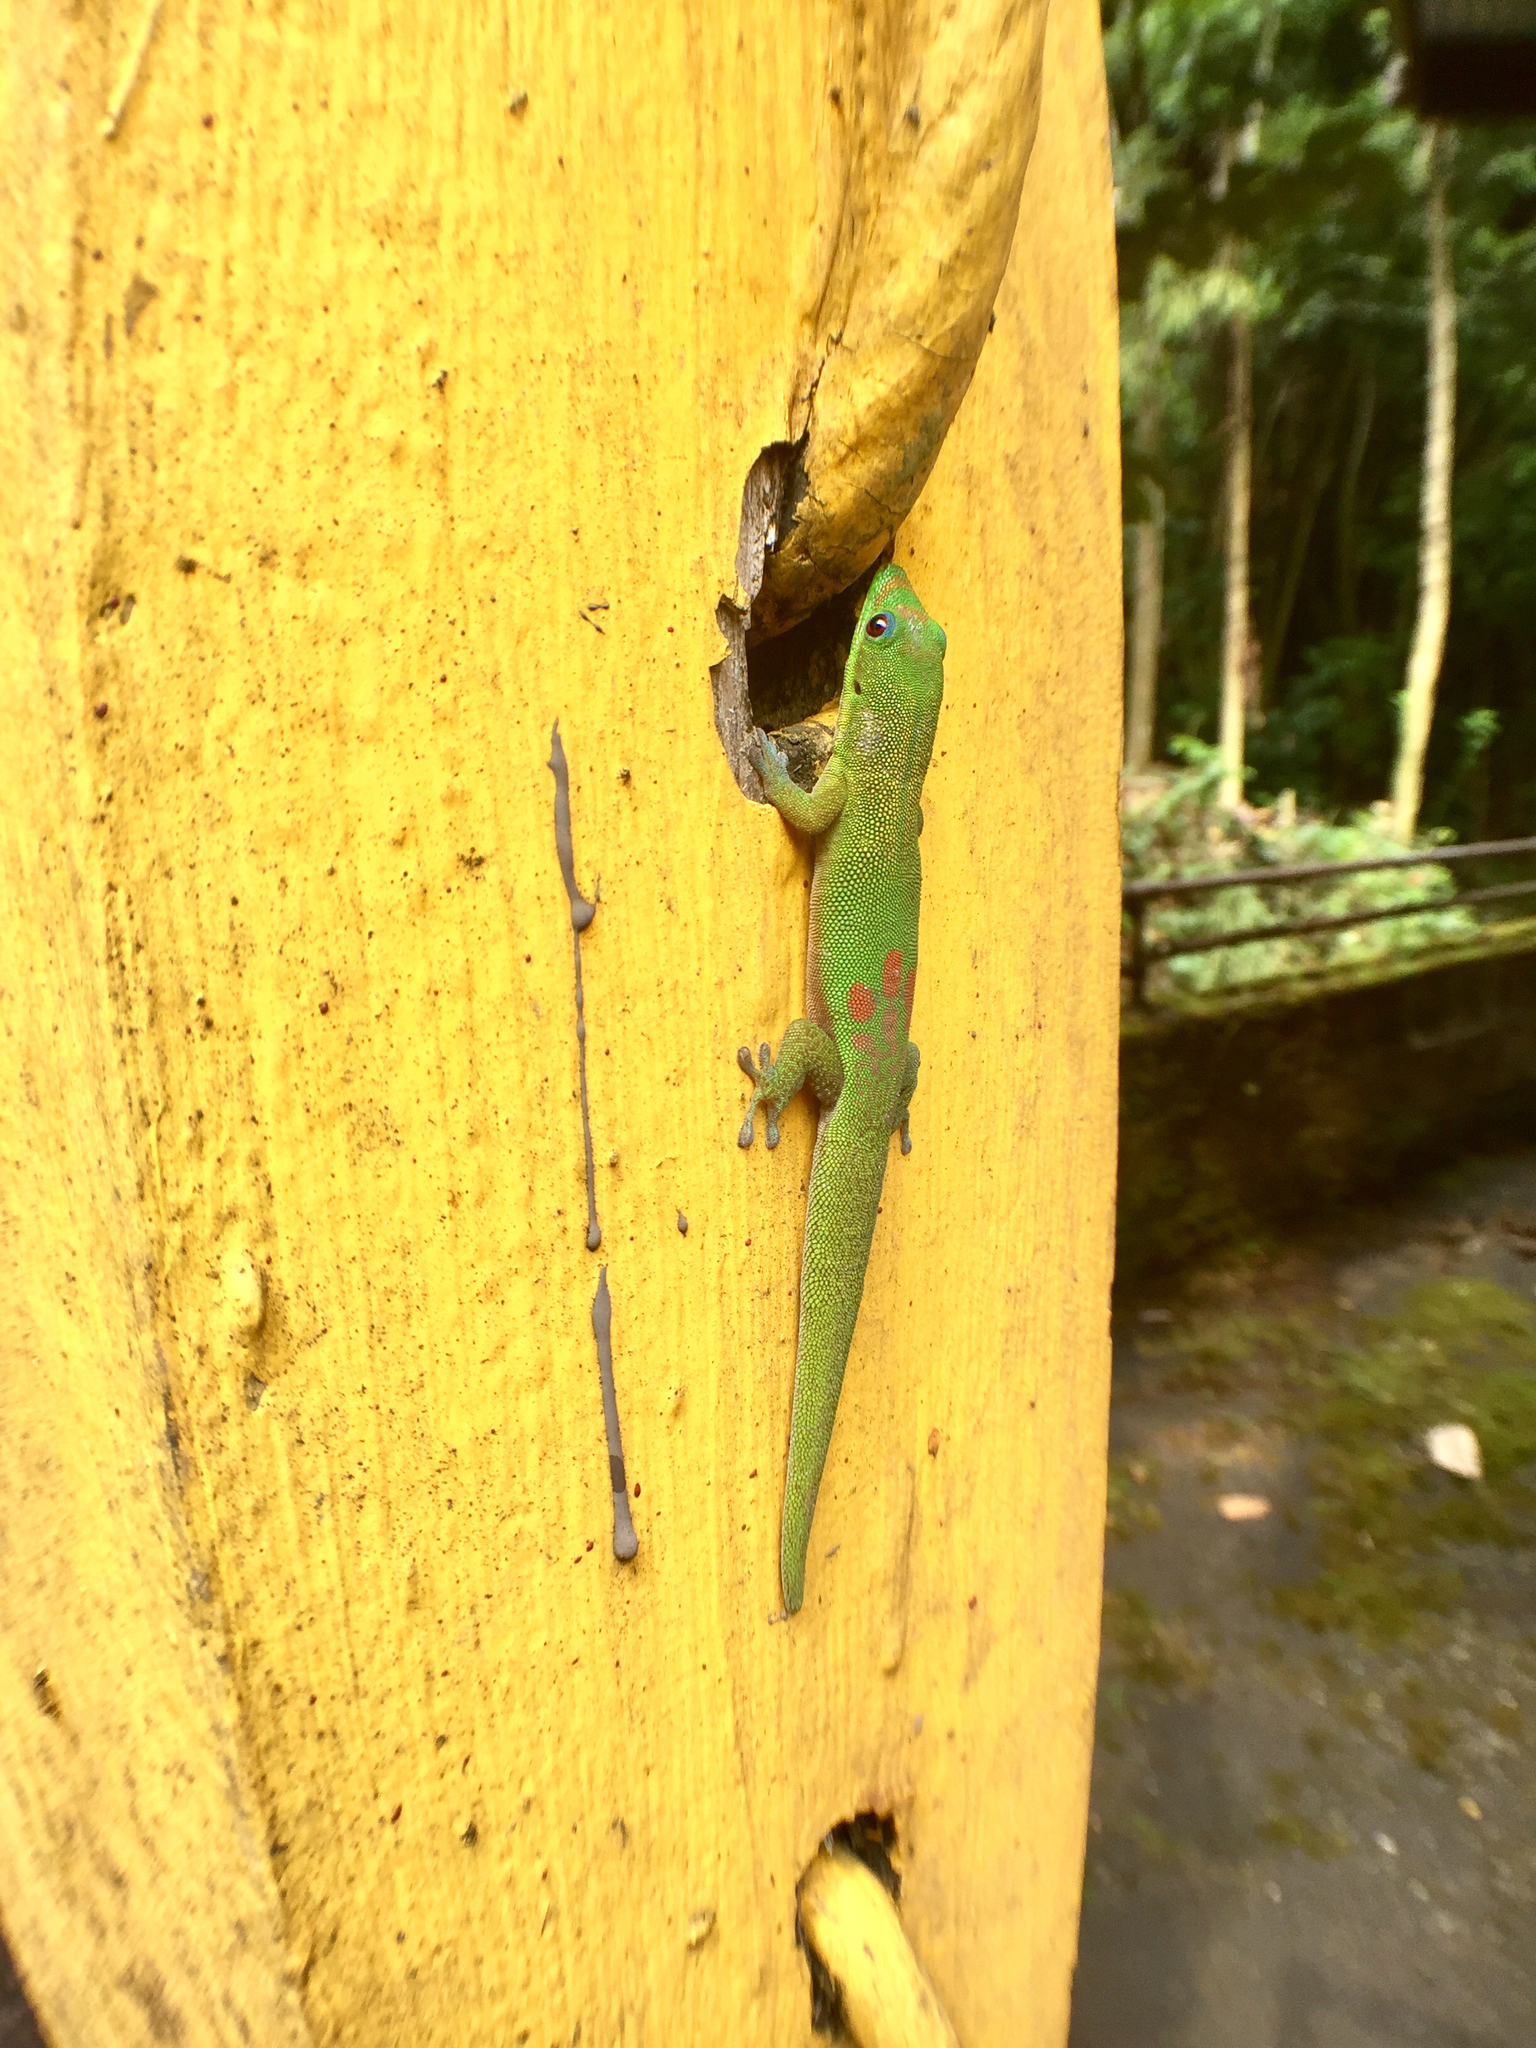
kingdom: Animalia
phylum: Chordata
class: Squamata
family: Gekkonidae
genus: Phelsuma
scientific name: Phelsuma laticauda
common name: Gold dust day gecko
